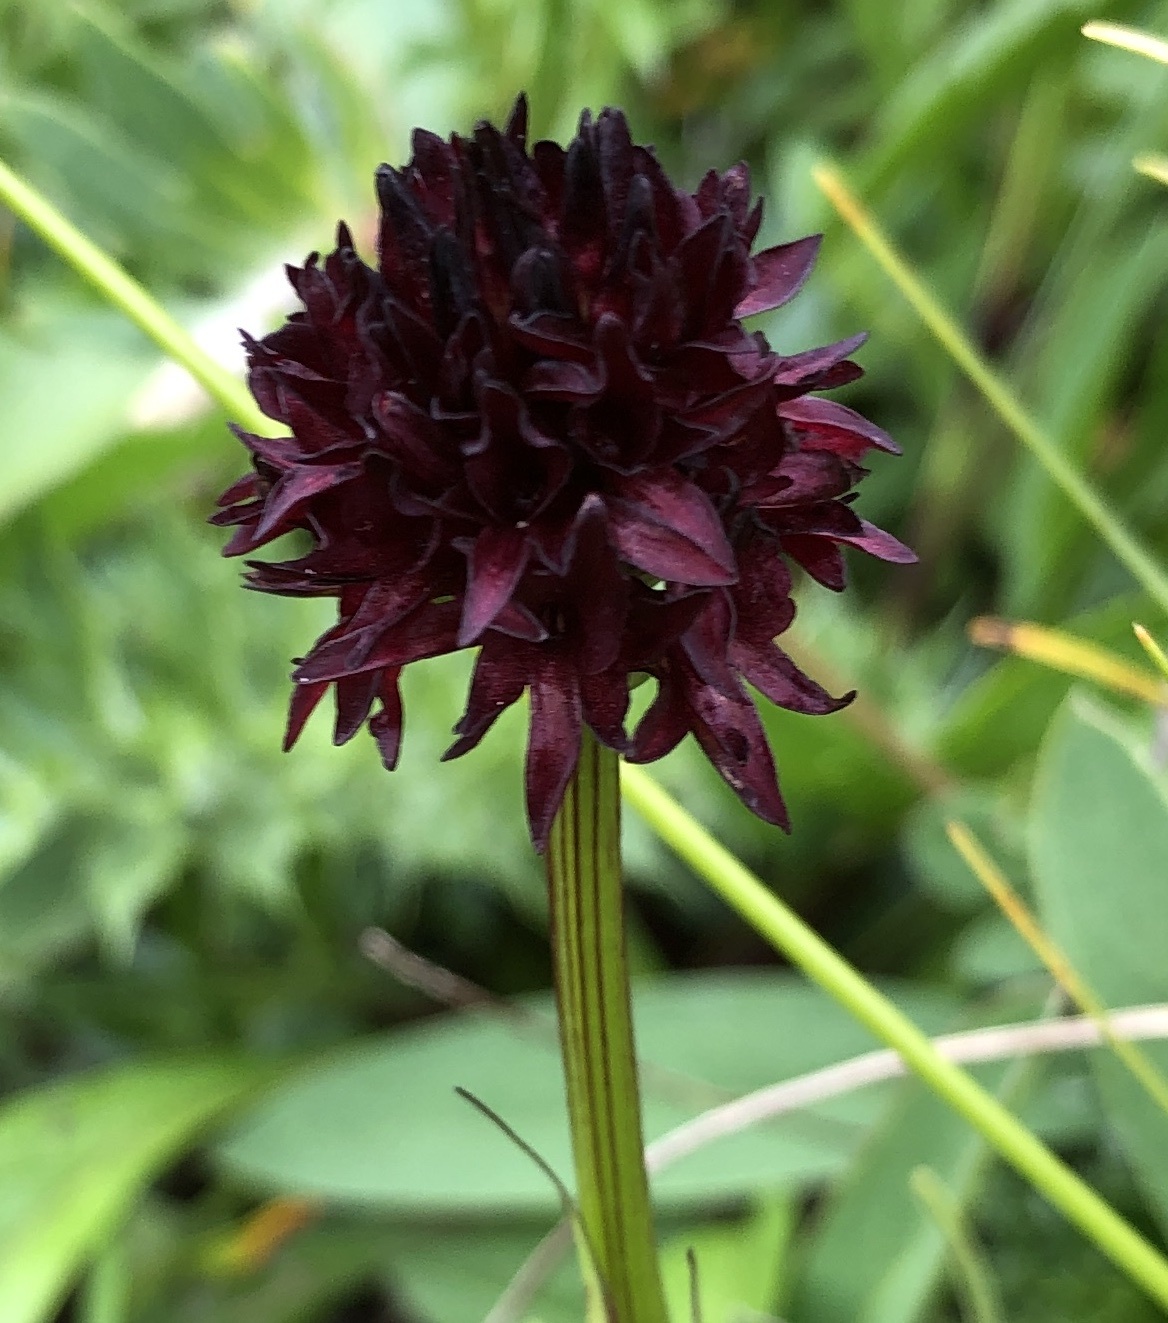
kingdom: Plantae
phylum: Tracheophyta
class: Liliopsida
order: Asparagales
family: Orchidaceae
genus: Gymnadenia
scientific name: Gymnadenia rhellicani
